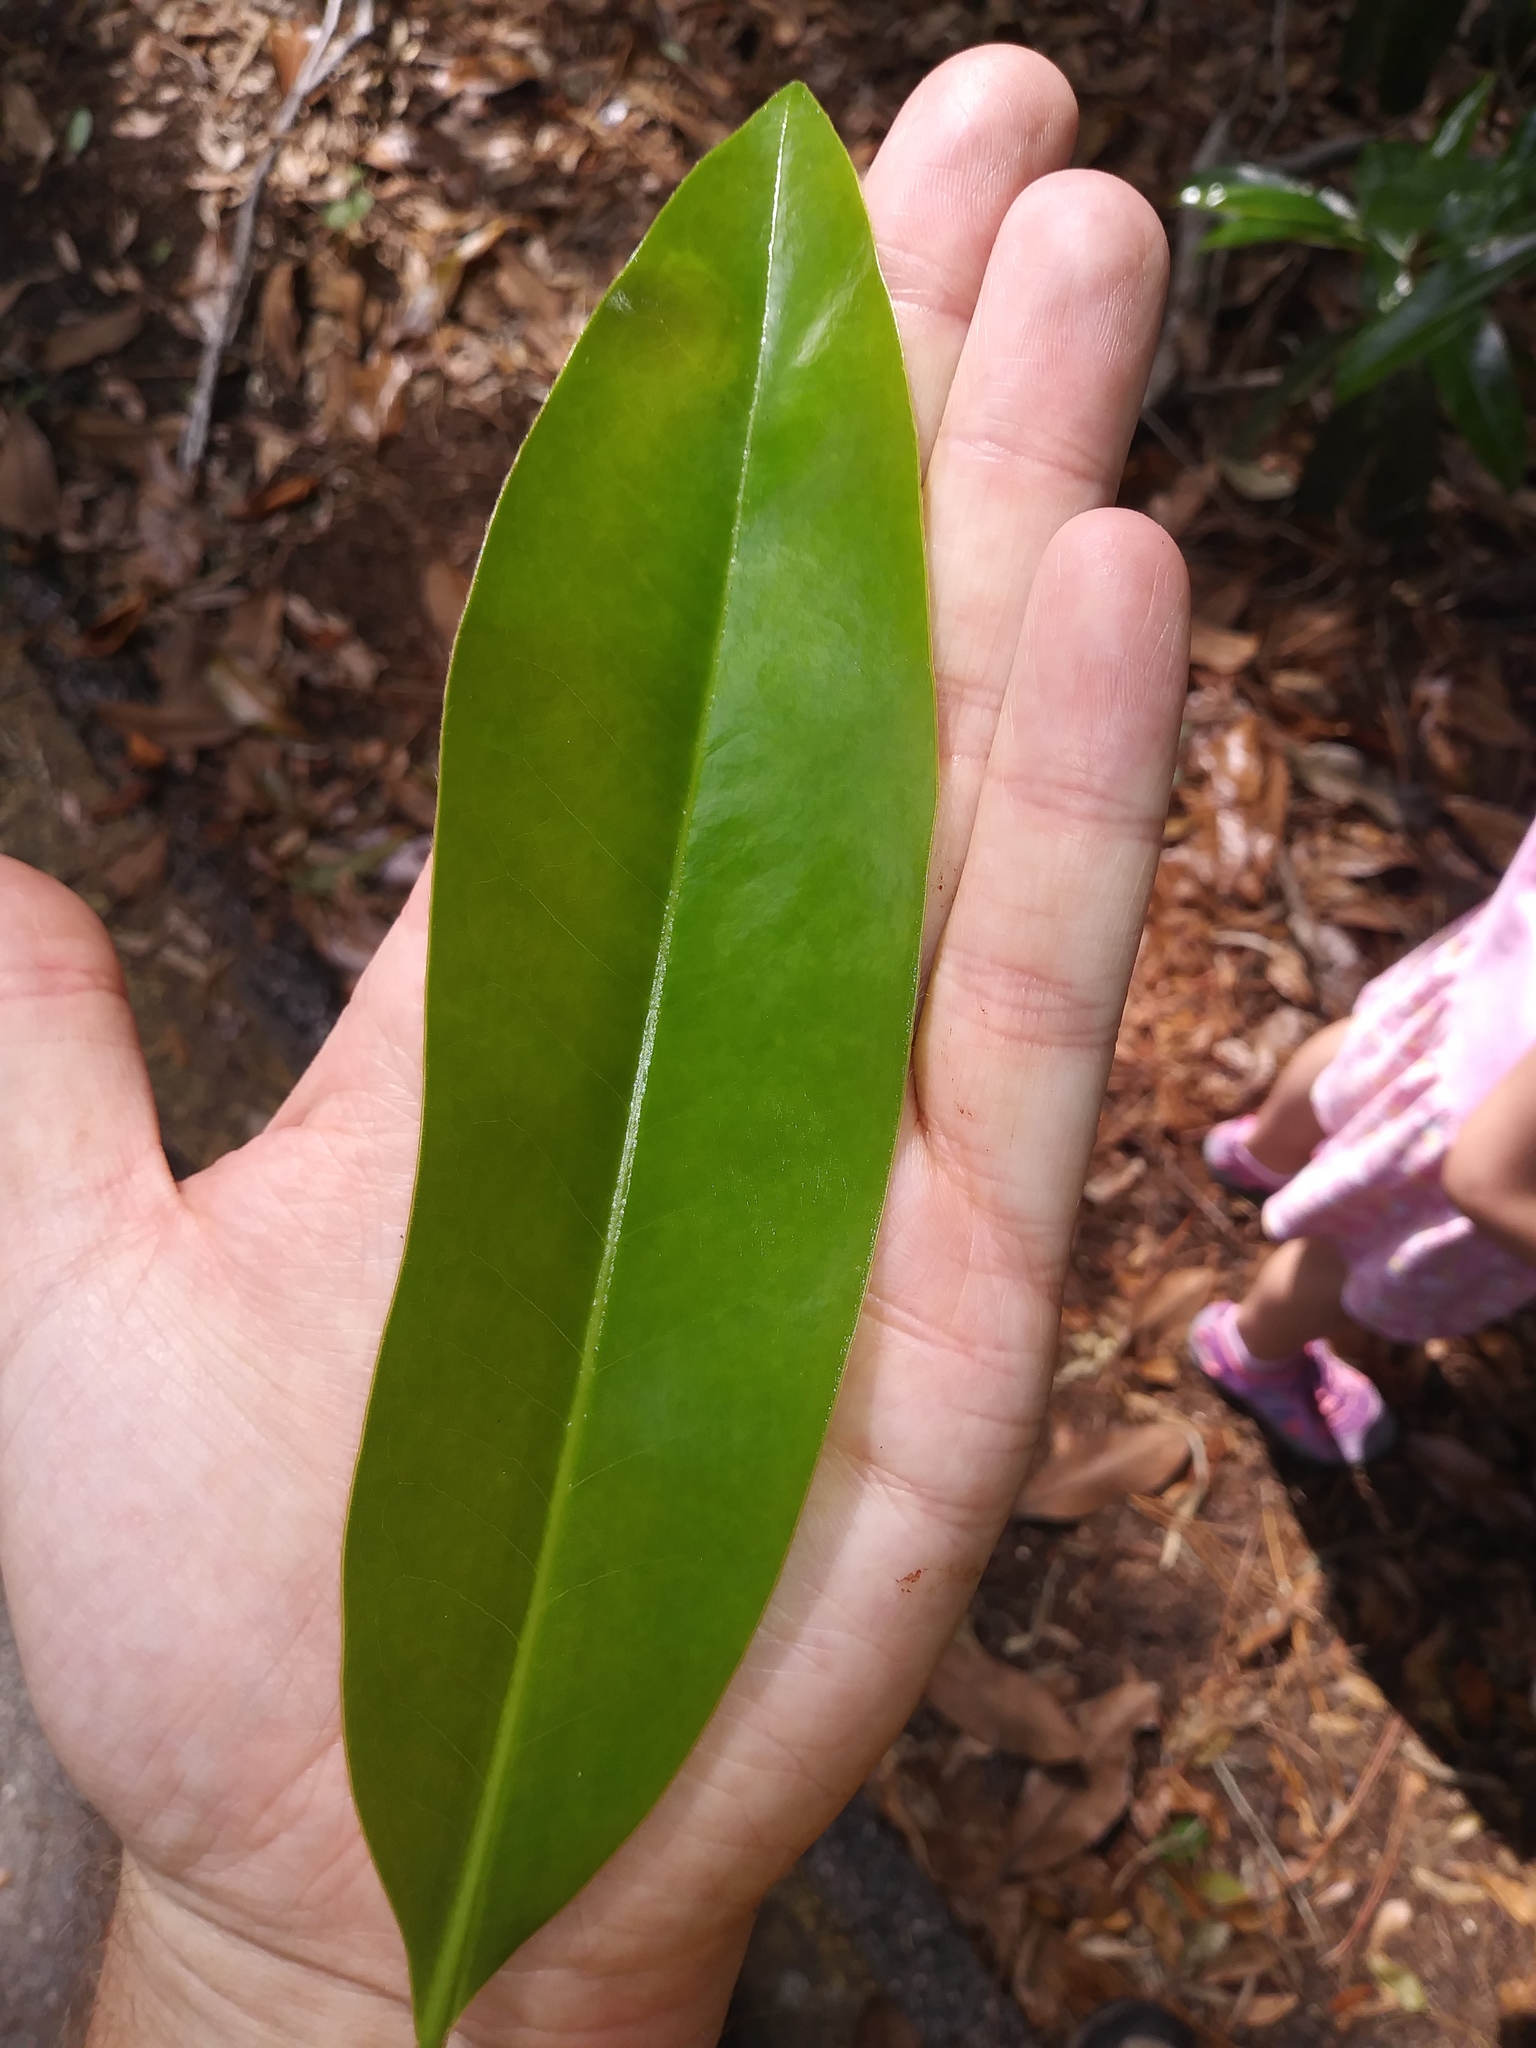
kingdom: Plantae
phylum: Tracheophyta
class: Magnoliopsida
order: Magnoliales
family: Magnoliaceae
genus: Magnolia
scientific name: Magnolia grandiflora
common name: Southern magnolia
